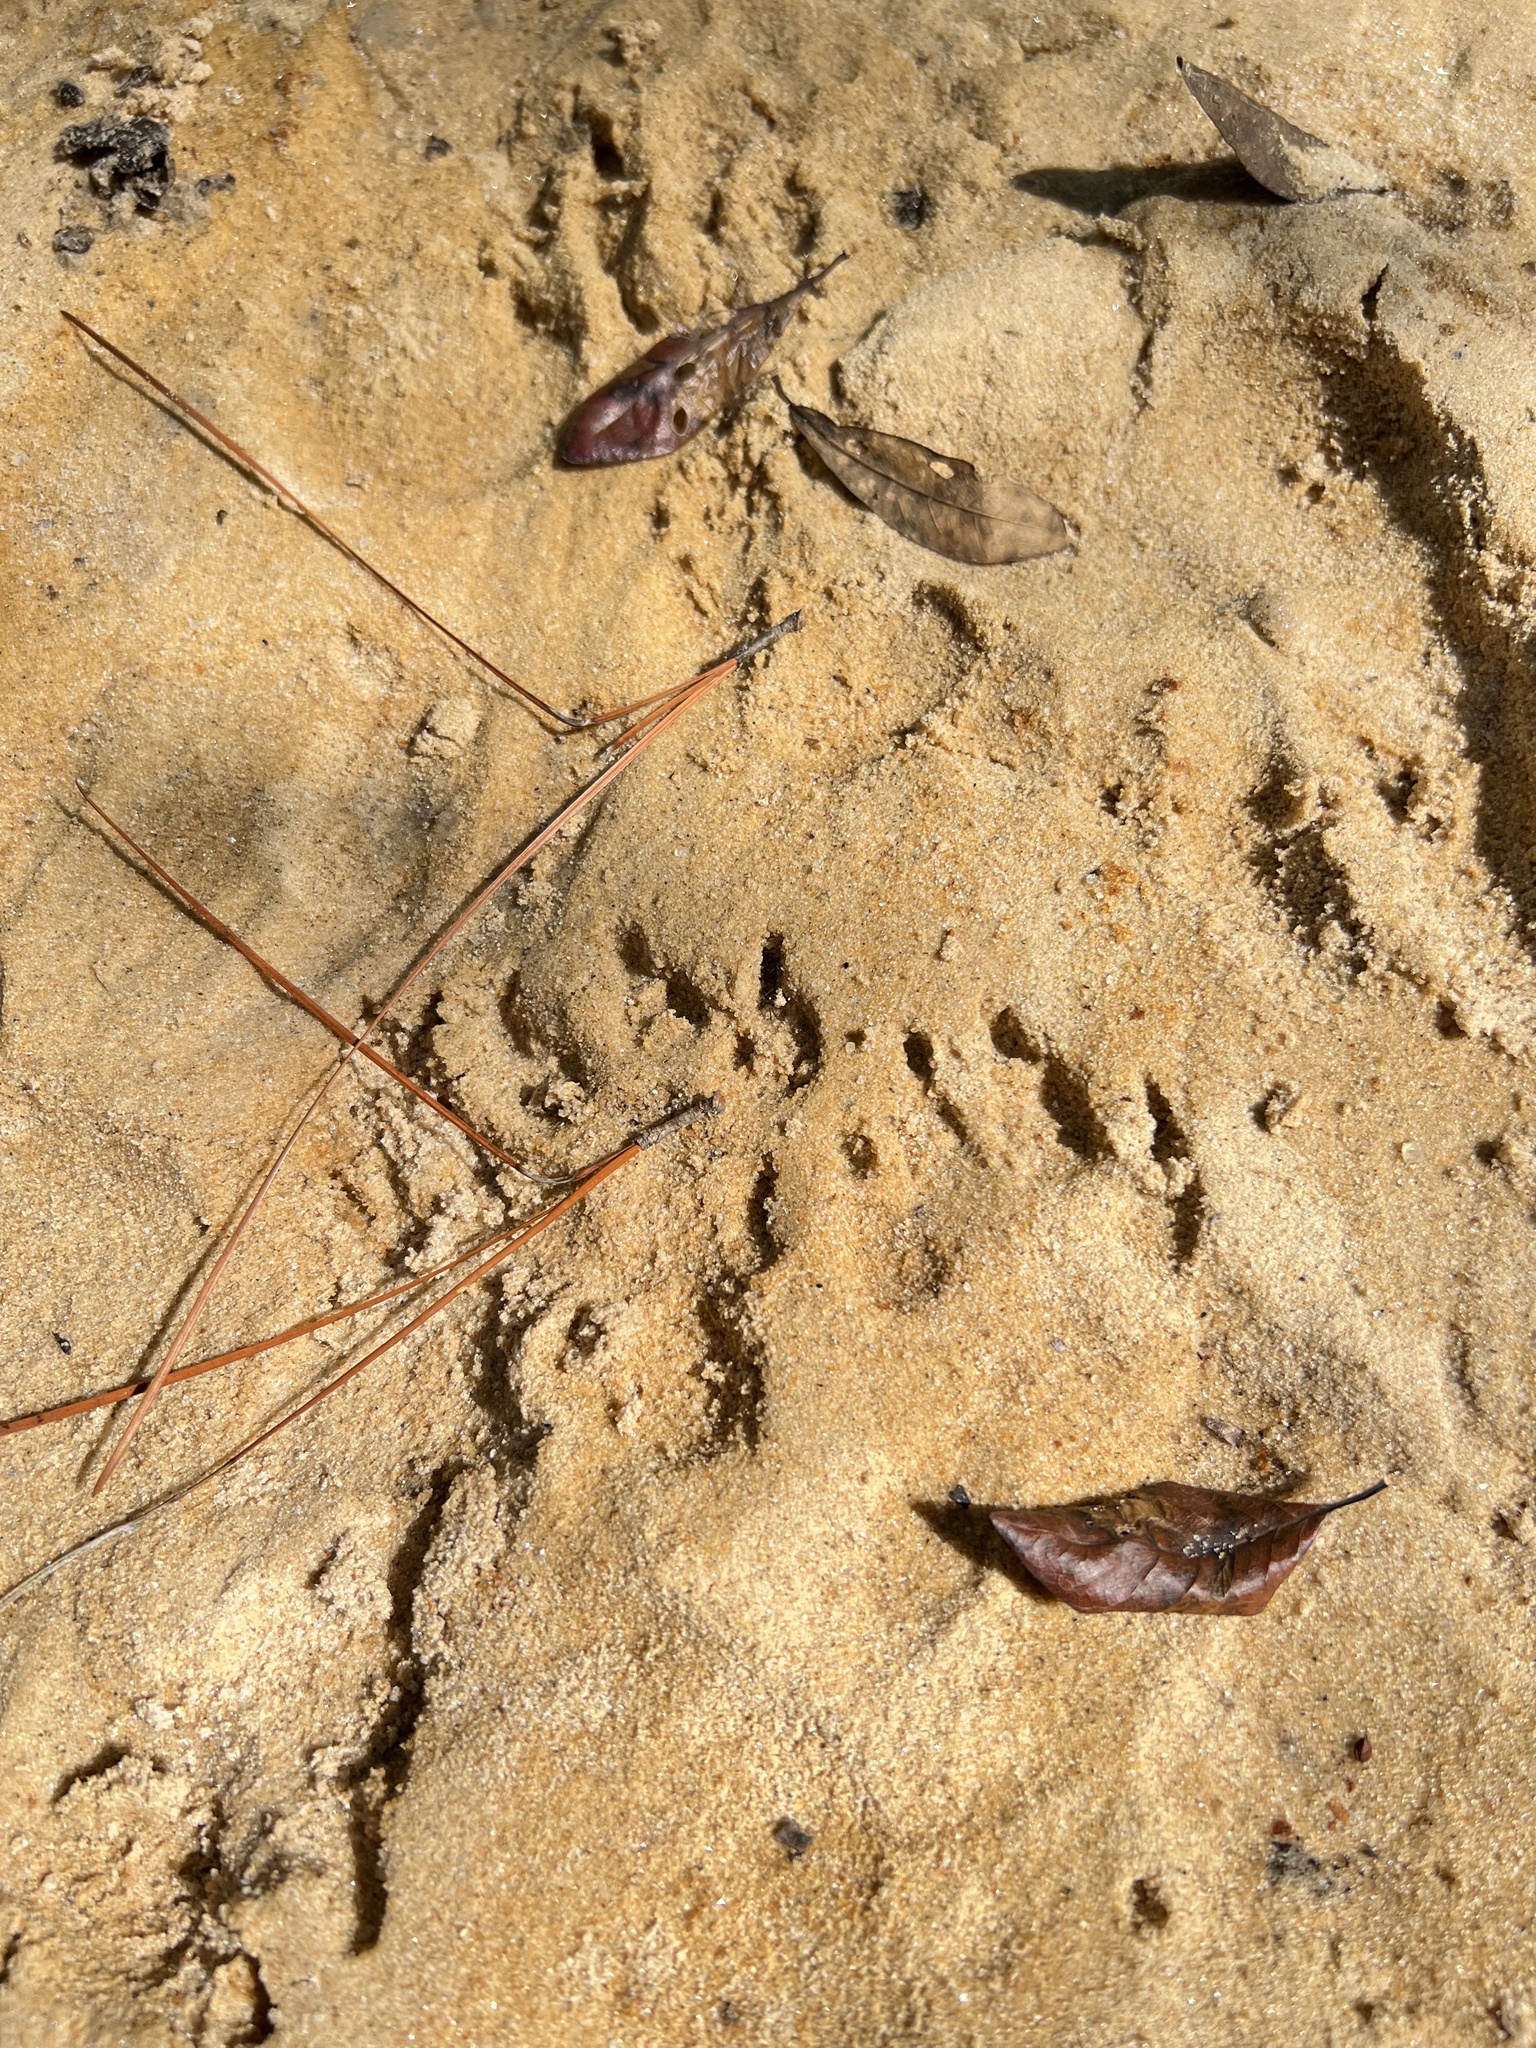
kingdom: Animalia
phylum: Chordata
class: Mammalia
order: Carnivora
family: Procyonidae
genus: Procyon
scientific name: Procyon lotor
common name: Raccoon
